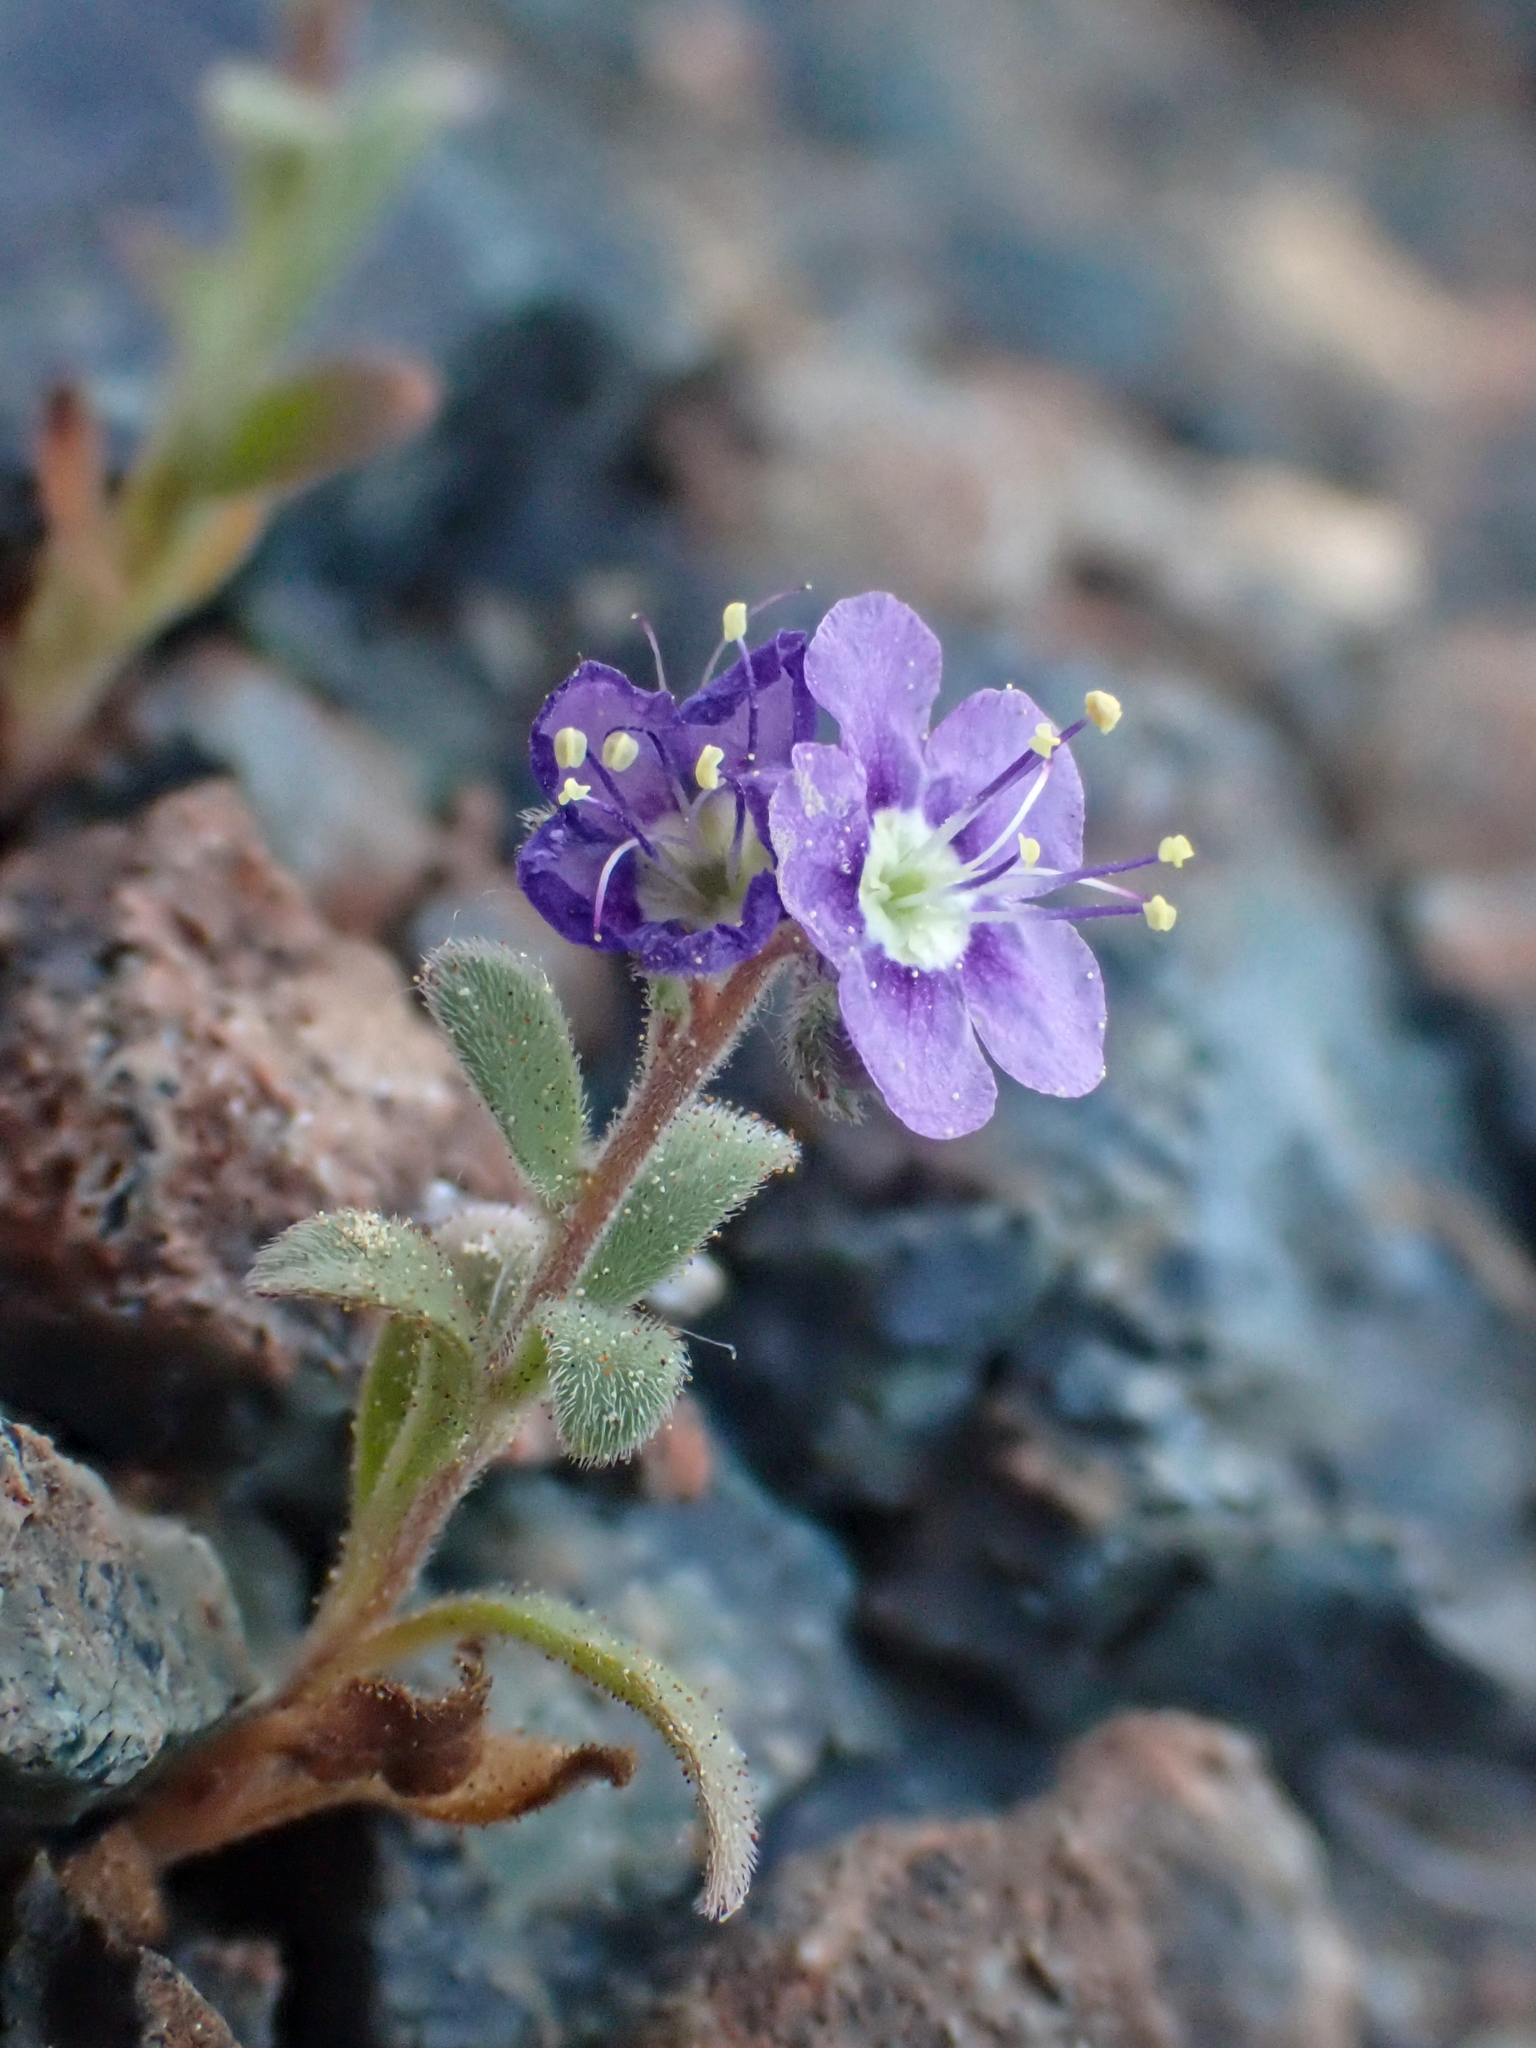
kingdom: Plantae
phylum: Tracheophyta
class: Magnoliopsida
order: Boraginales
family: Hydrophyllaceae
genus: Phacelia
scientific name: Phacelia greenei
